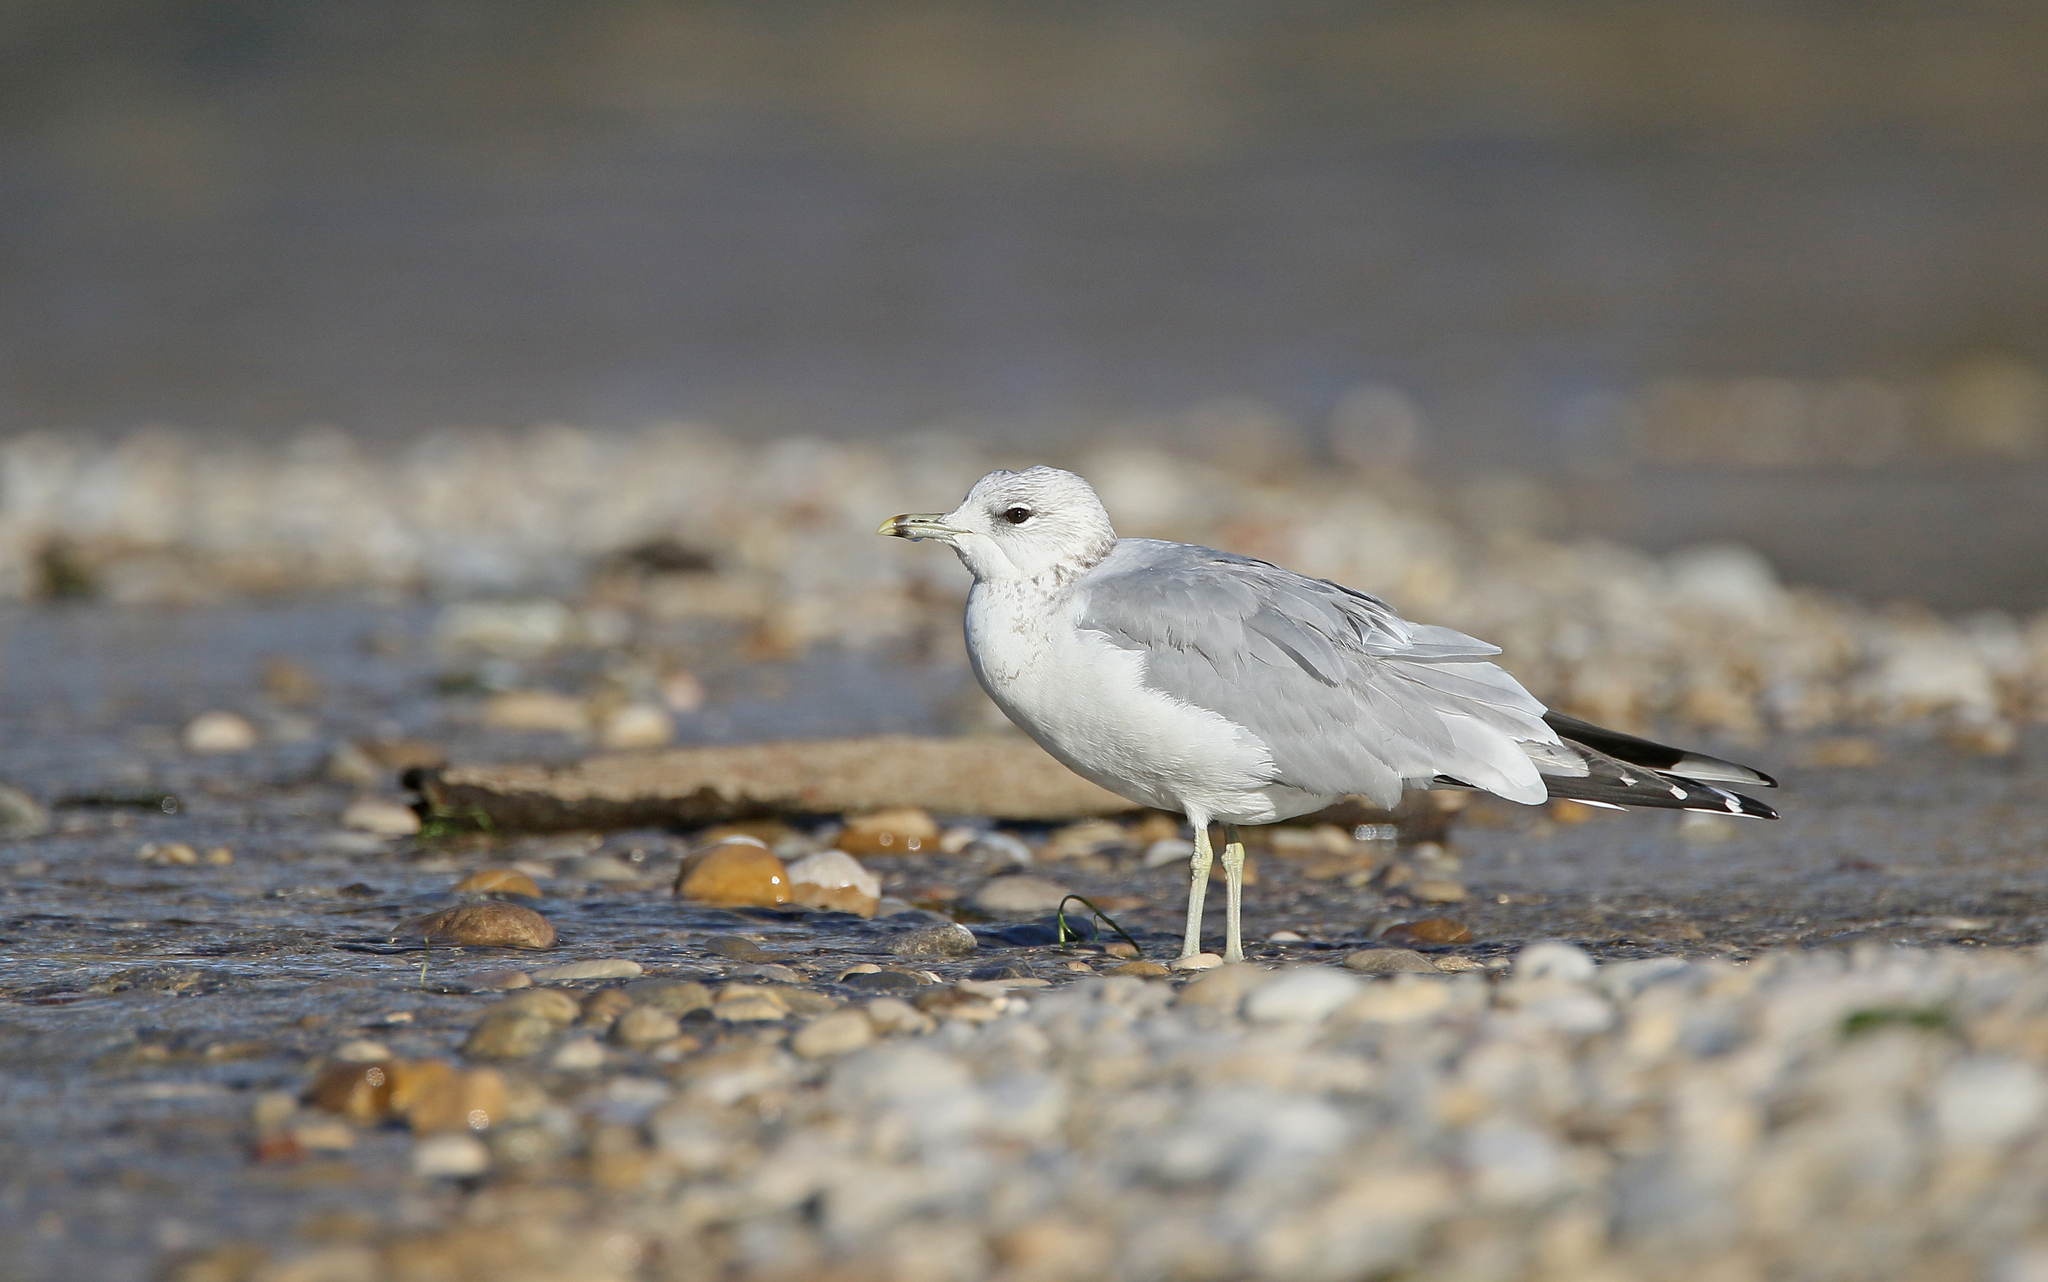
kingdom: Animalia
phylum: Chordata
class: Aves
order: Charadriiformes
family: Laridae
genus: Larus
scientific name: Larus canus
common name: Mew gull
